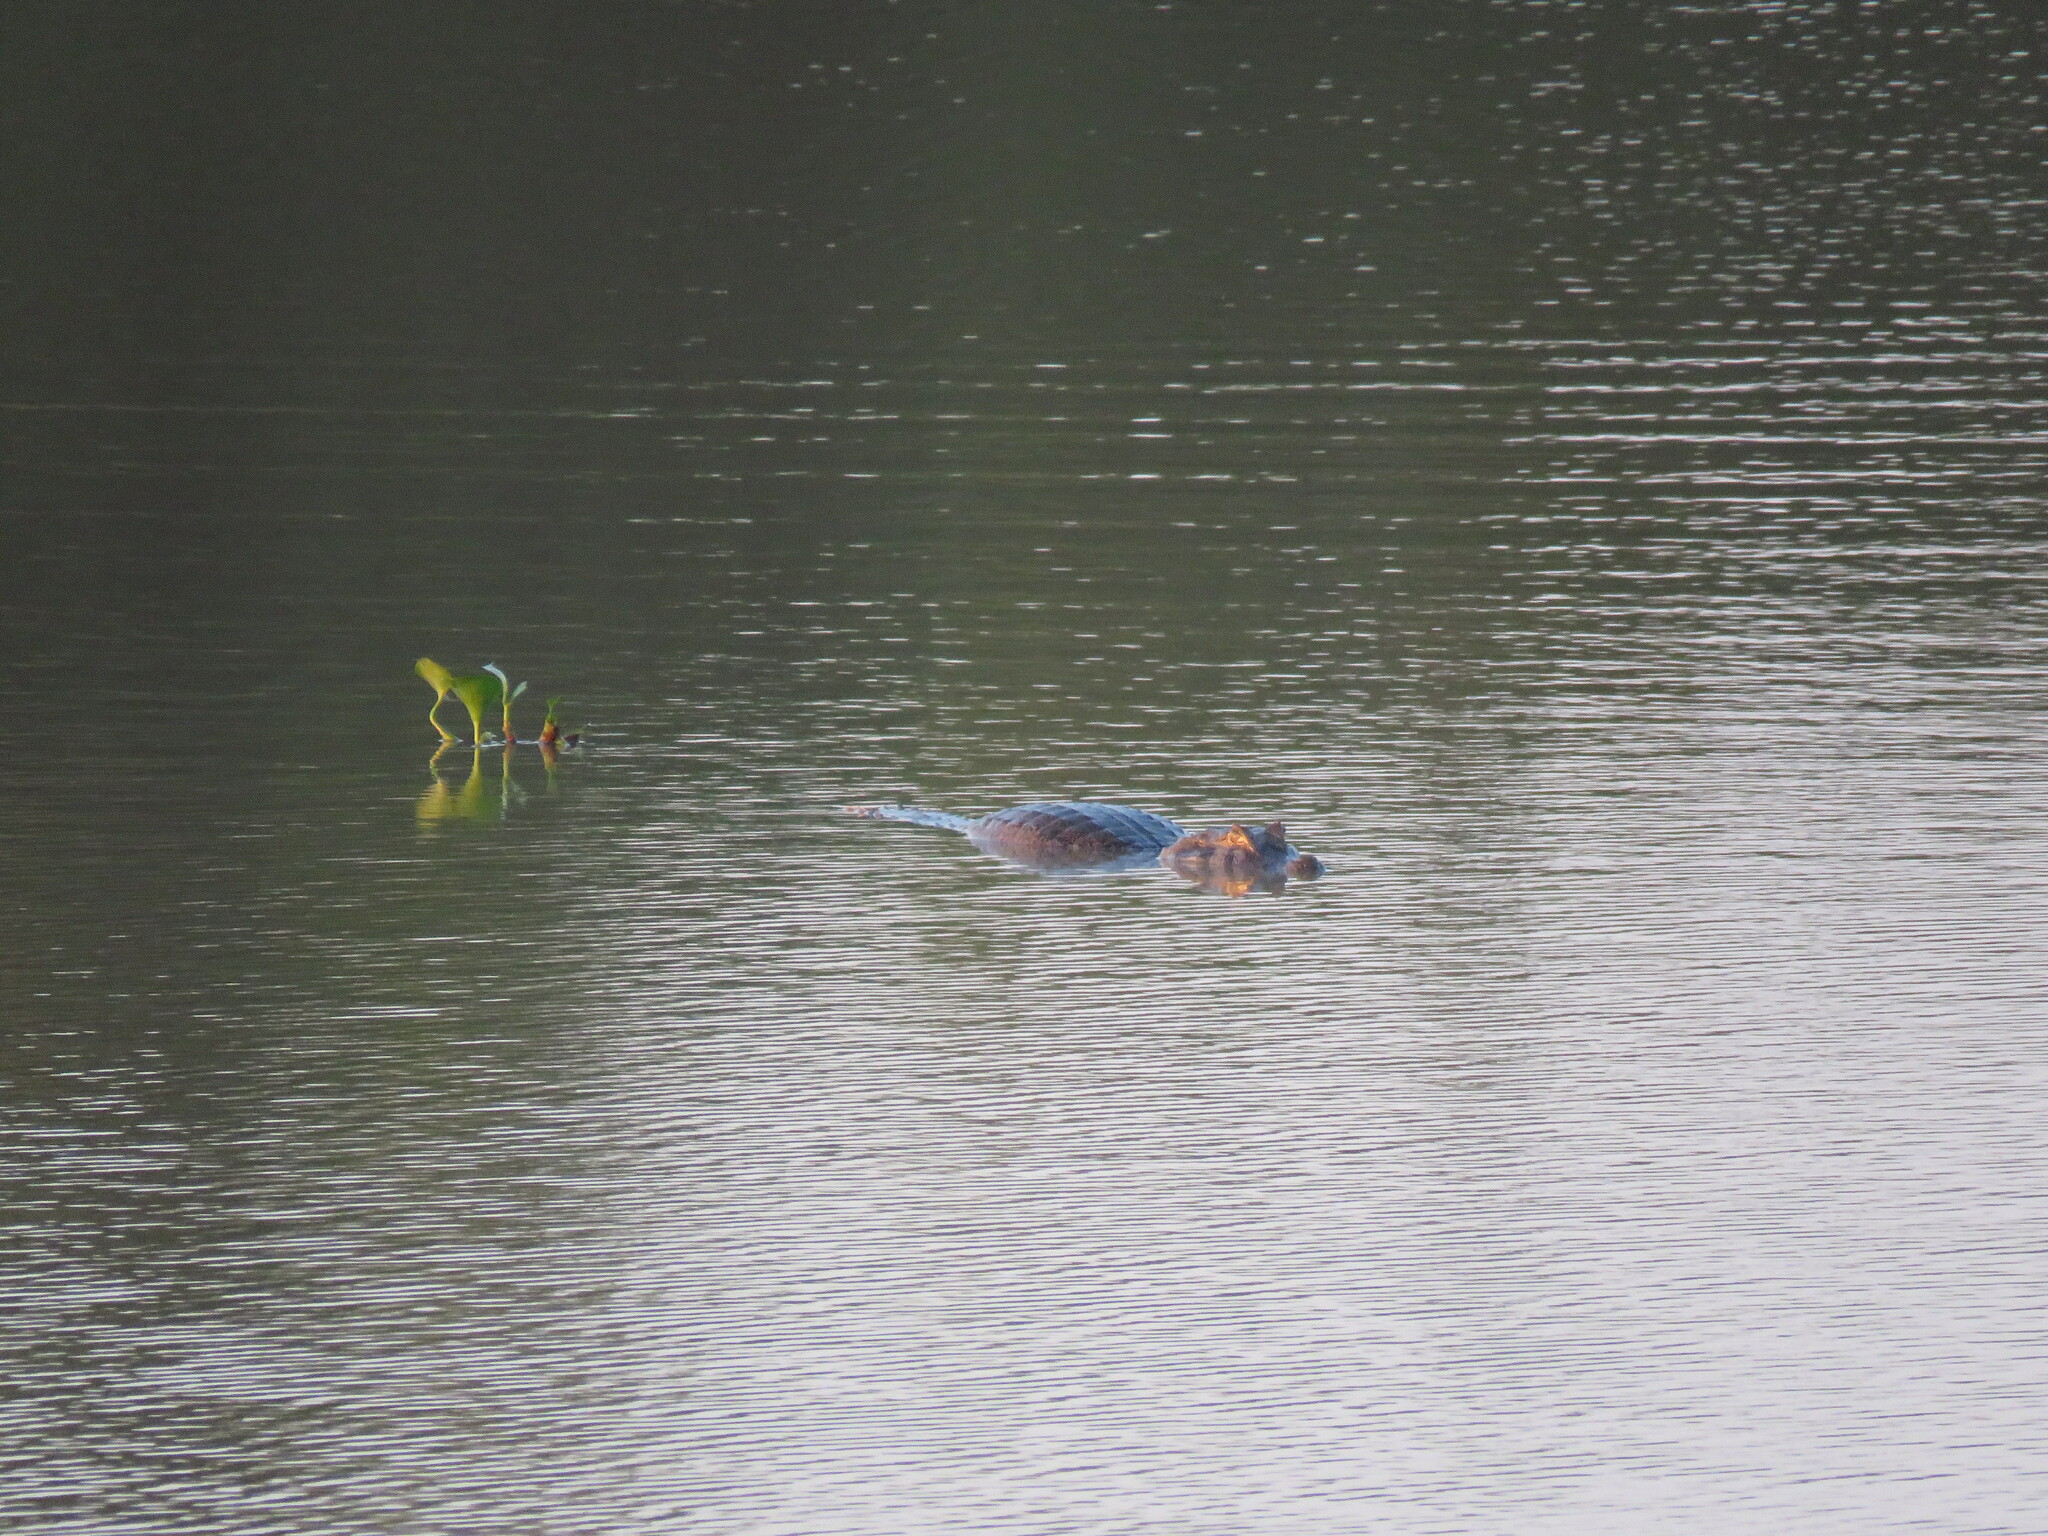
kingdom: Animalia
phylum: Chordata
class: Crocodylia
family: Alligatoridae
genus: Caiman
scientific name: Caiman yacare
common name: Yacare caiman
